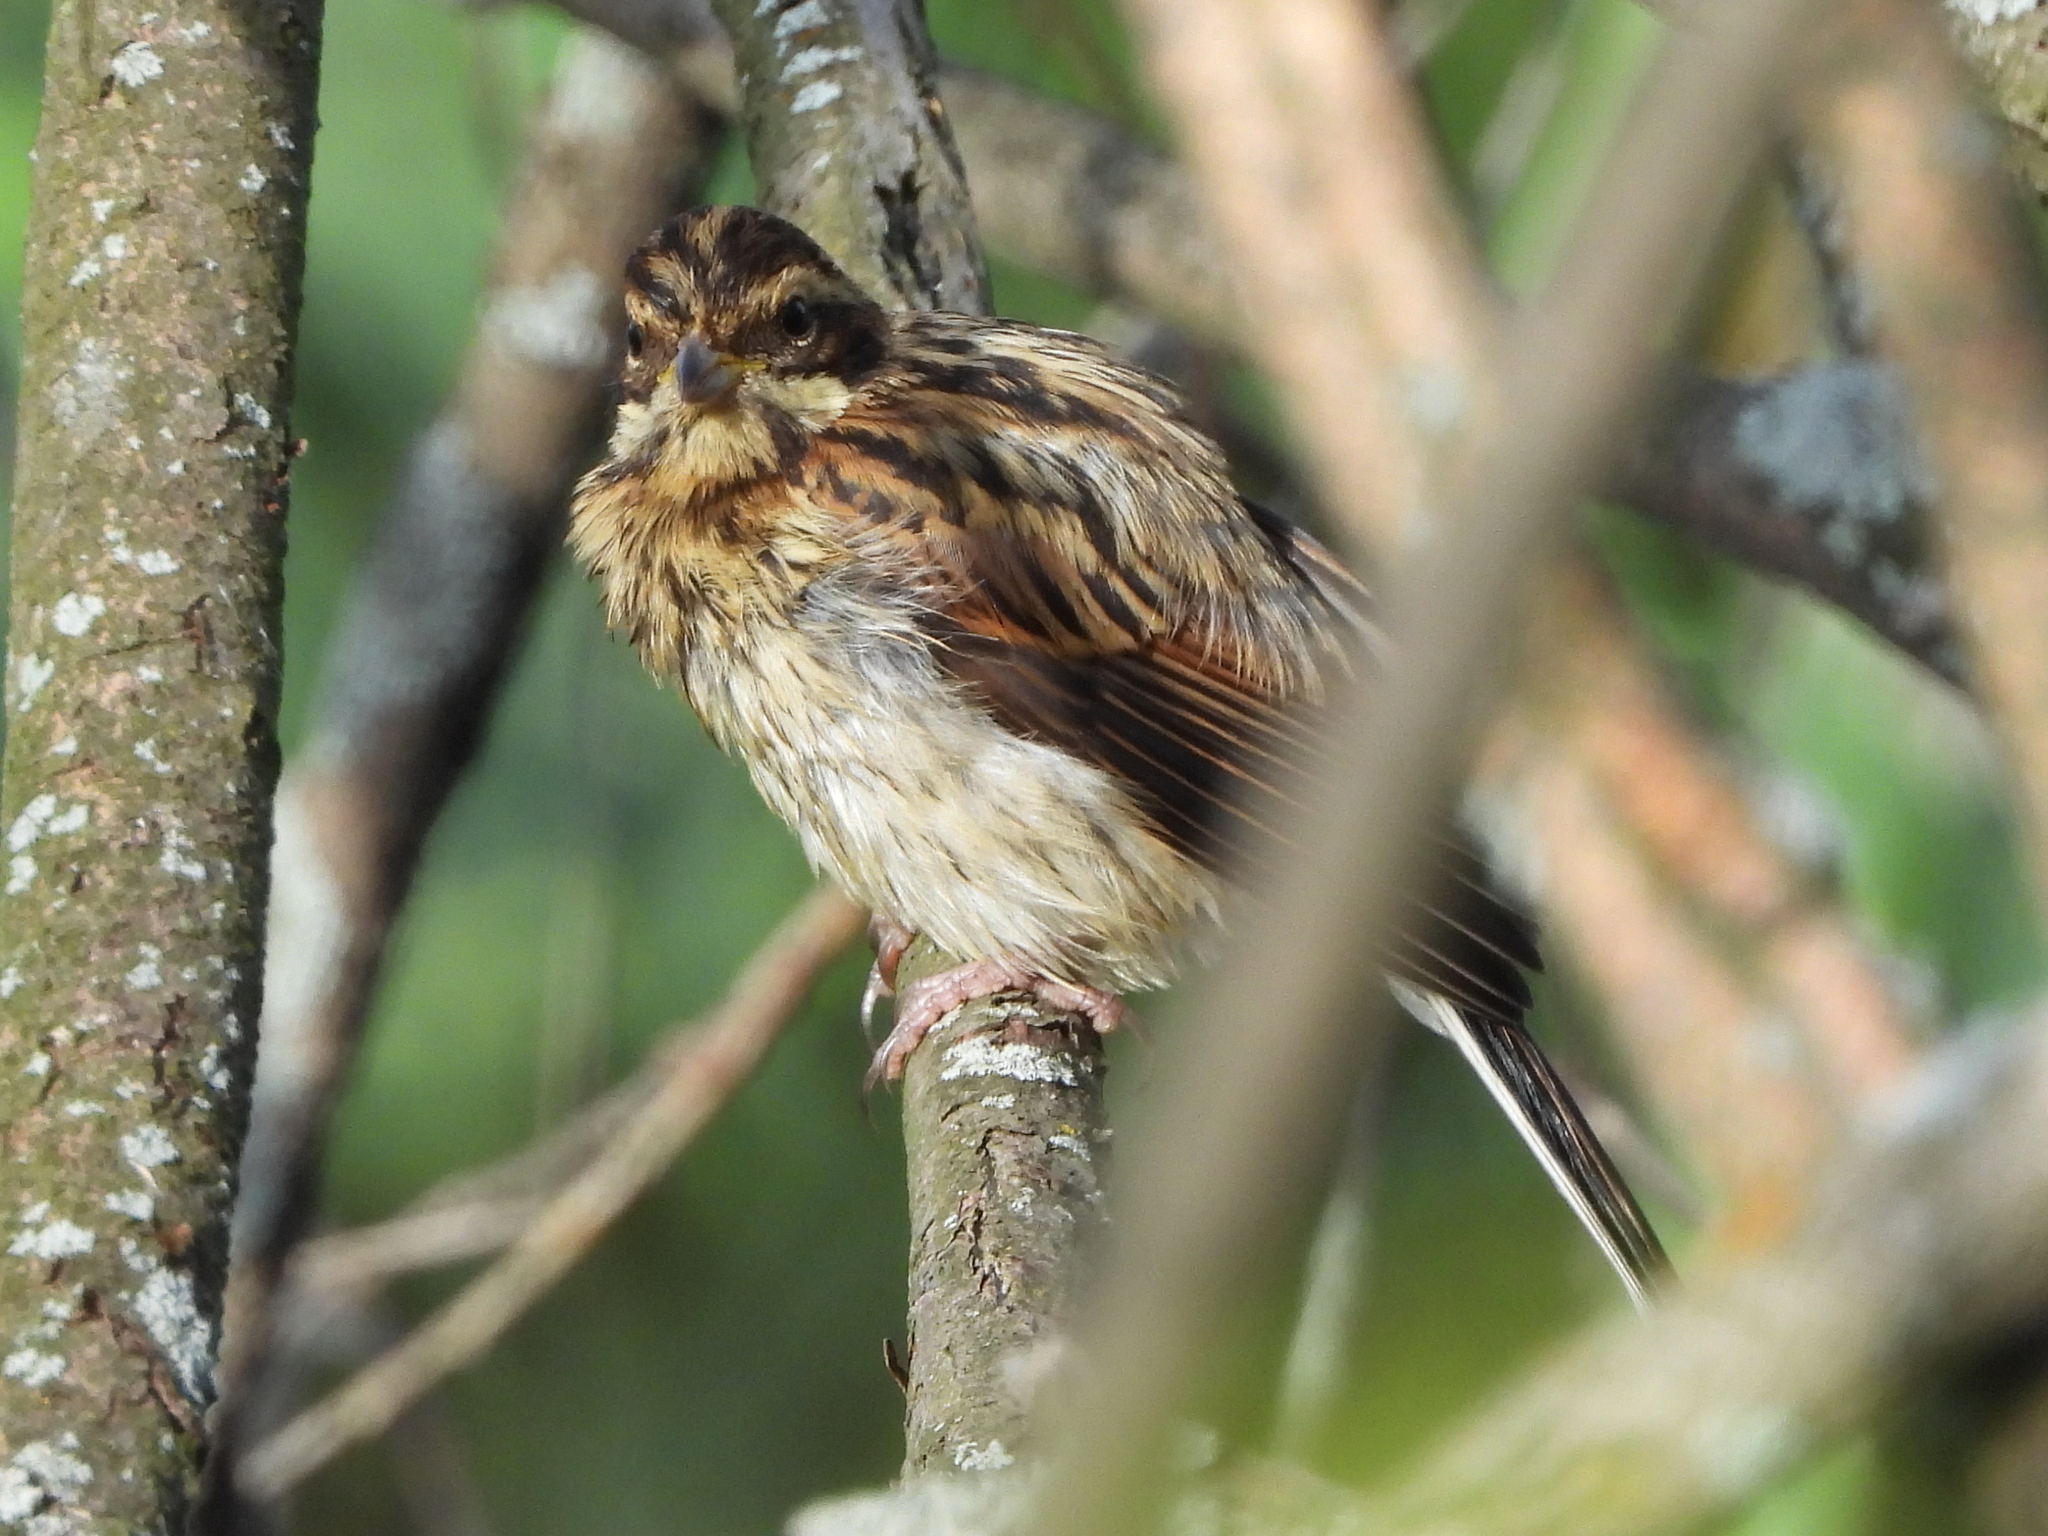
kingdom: Animalia
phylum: Chordata
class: Aves
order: Passeriformes
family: Emberizidae
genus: Emberiza
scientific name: Emberiza schoeniclus
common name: Reed bunting
